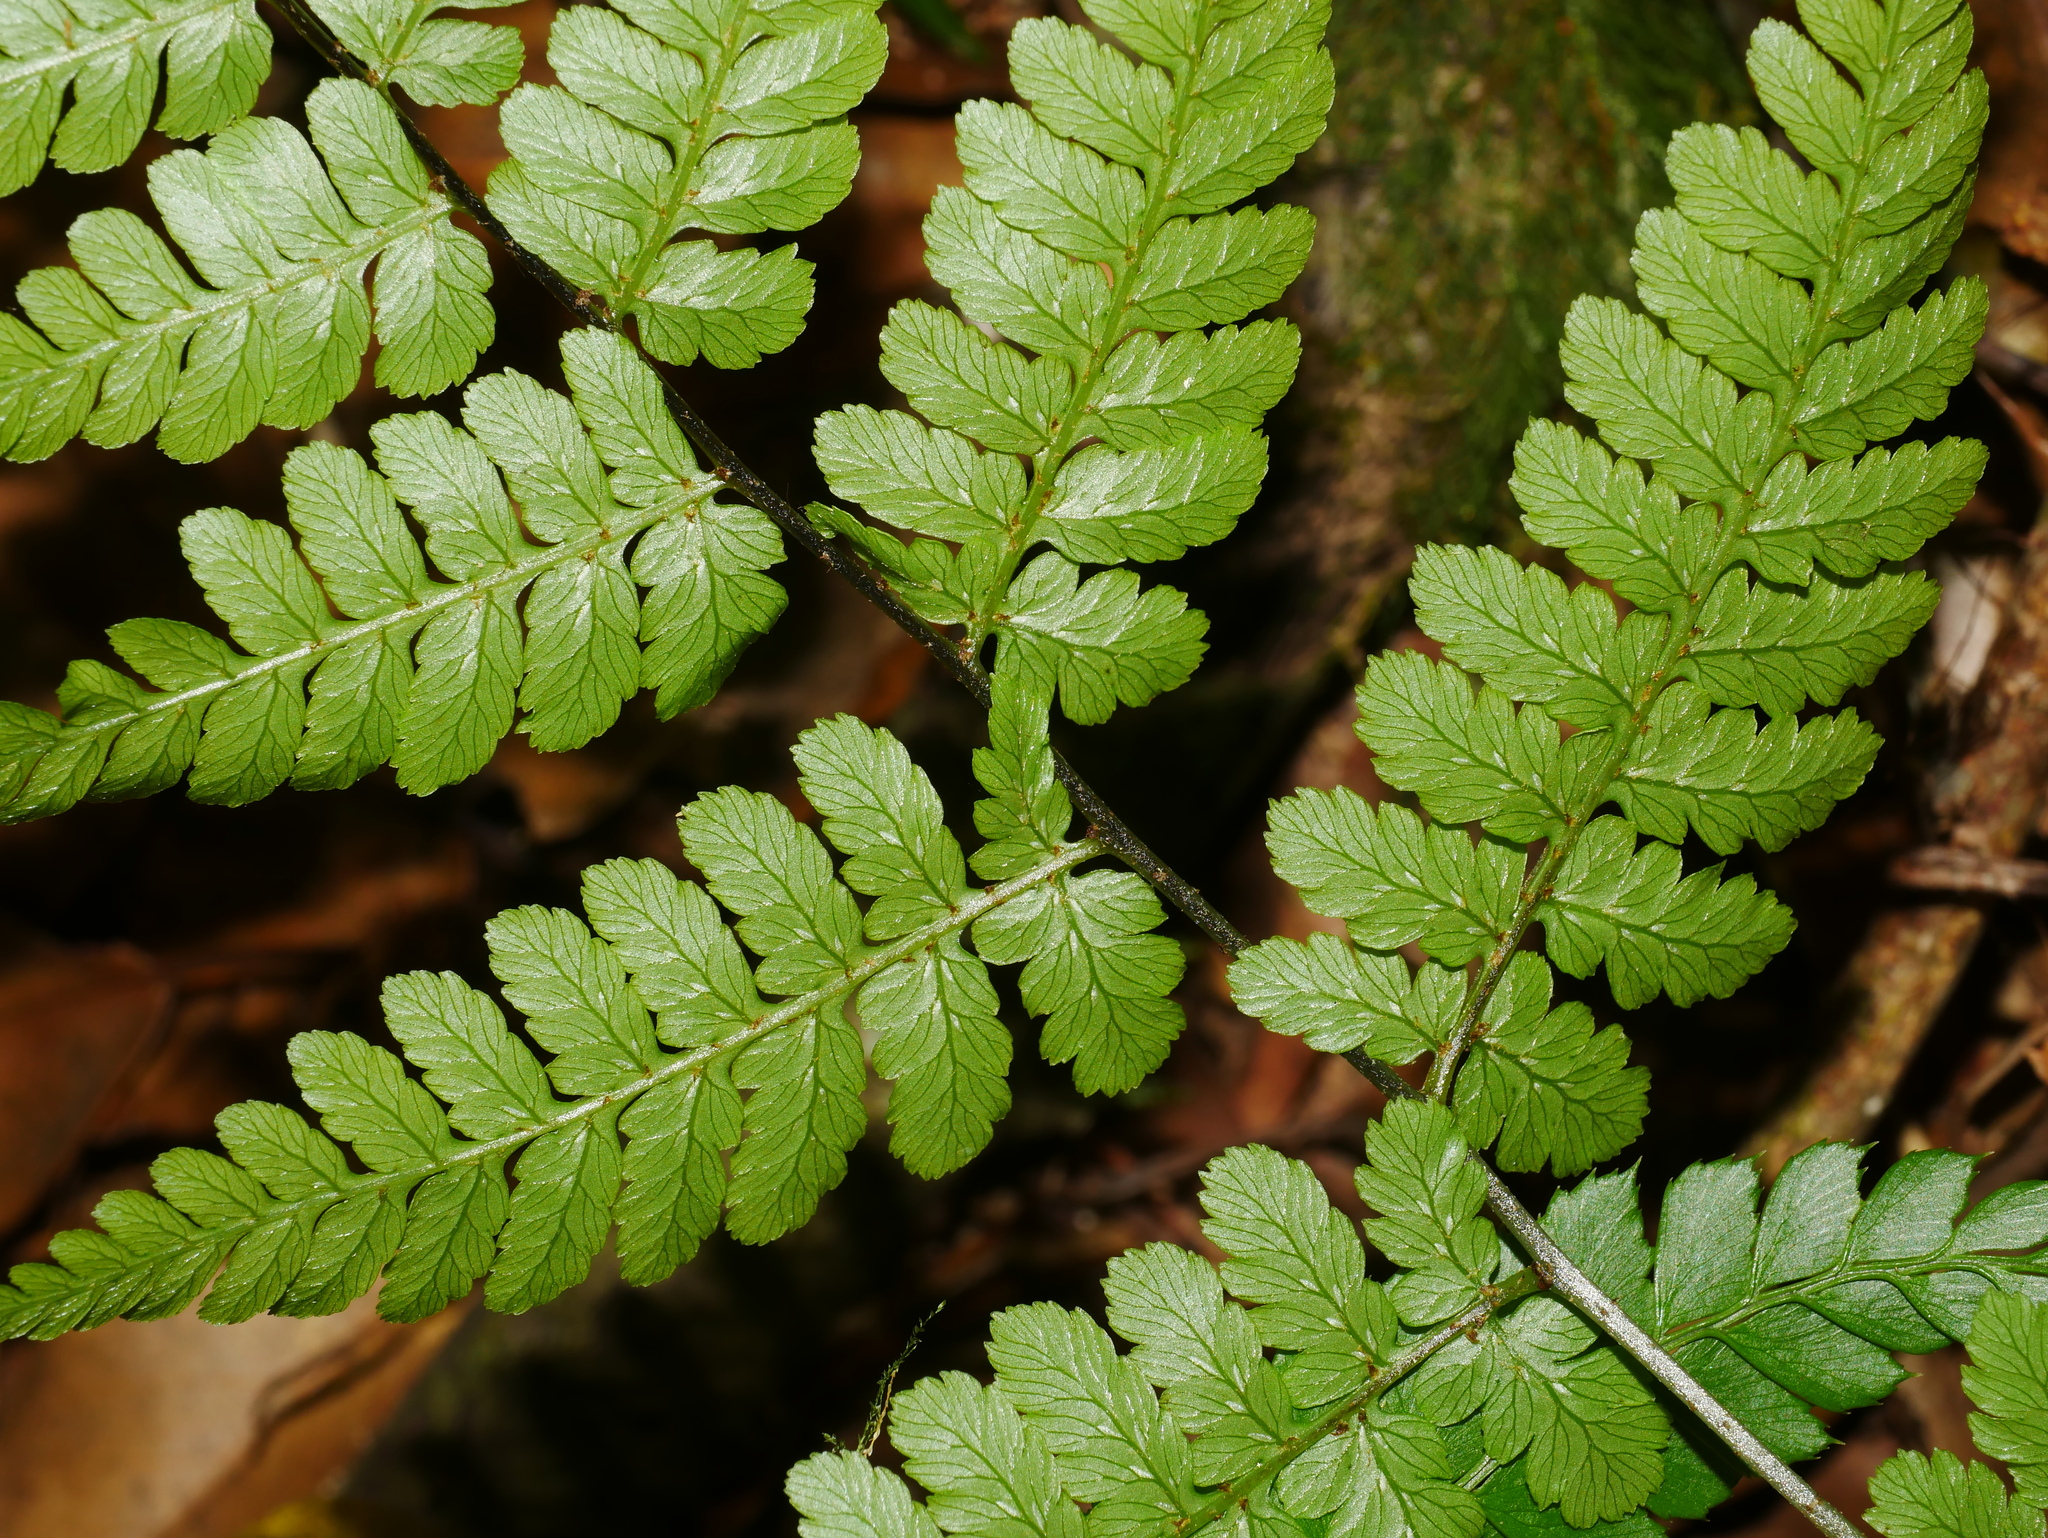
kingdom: Plantae
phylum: Tracheophyta
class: Polypodiopsida
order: Polypodiales
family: Athyriaceae
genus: Diplazium
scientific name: Diplazium kawakamii
